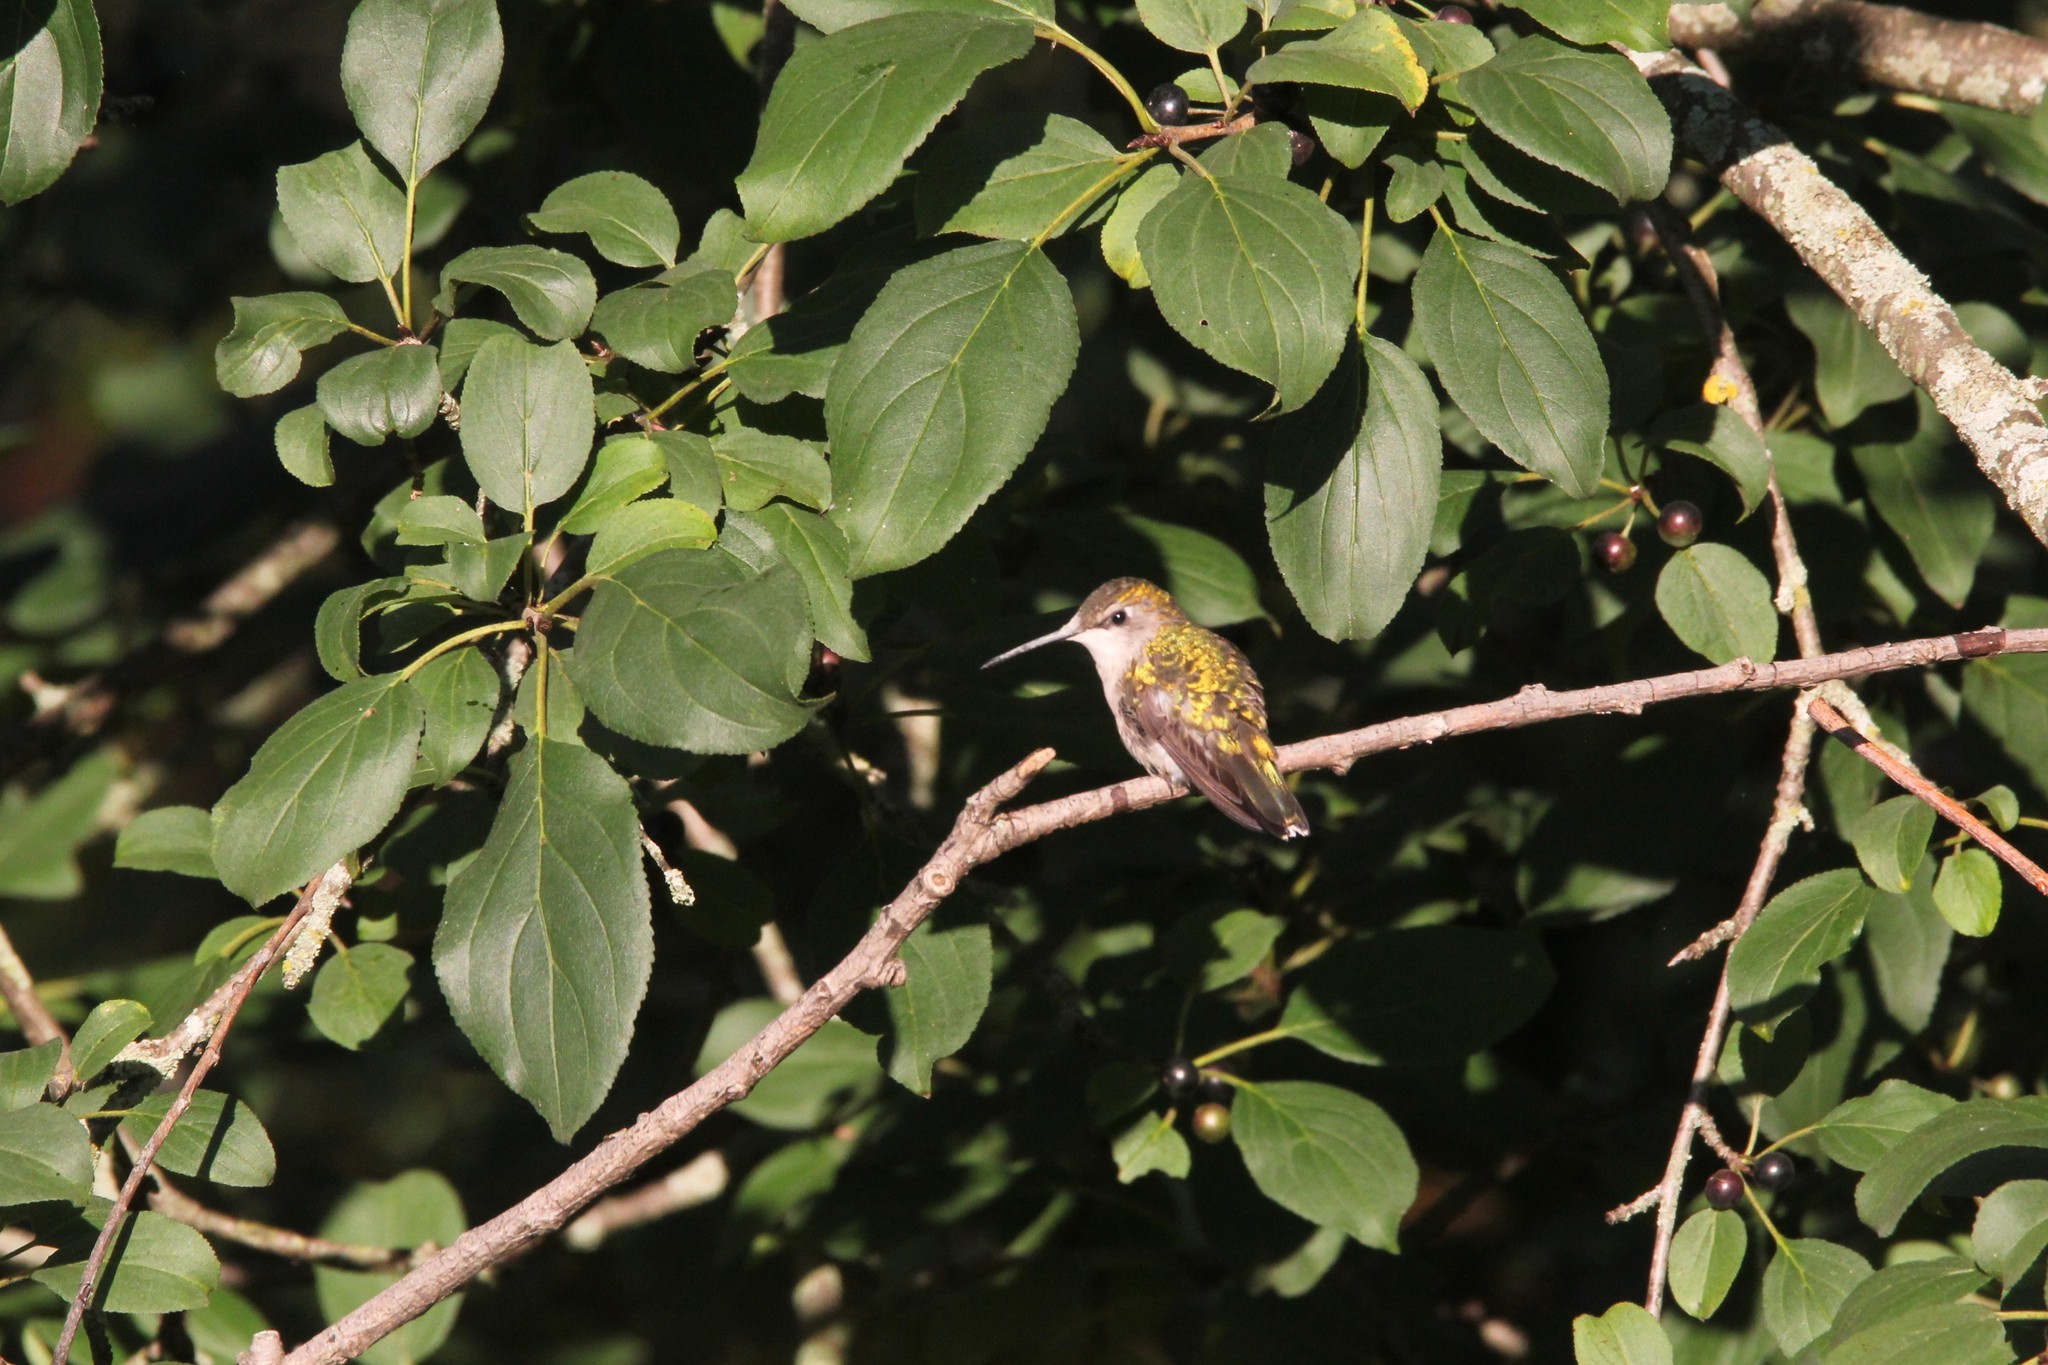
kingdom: Animalia
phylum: Chordata
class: Aves
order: Apodiformes
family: Trochilidae
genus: Archilochus
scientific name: Archilochus colubris
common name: Ruby-throated hummingbird
